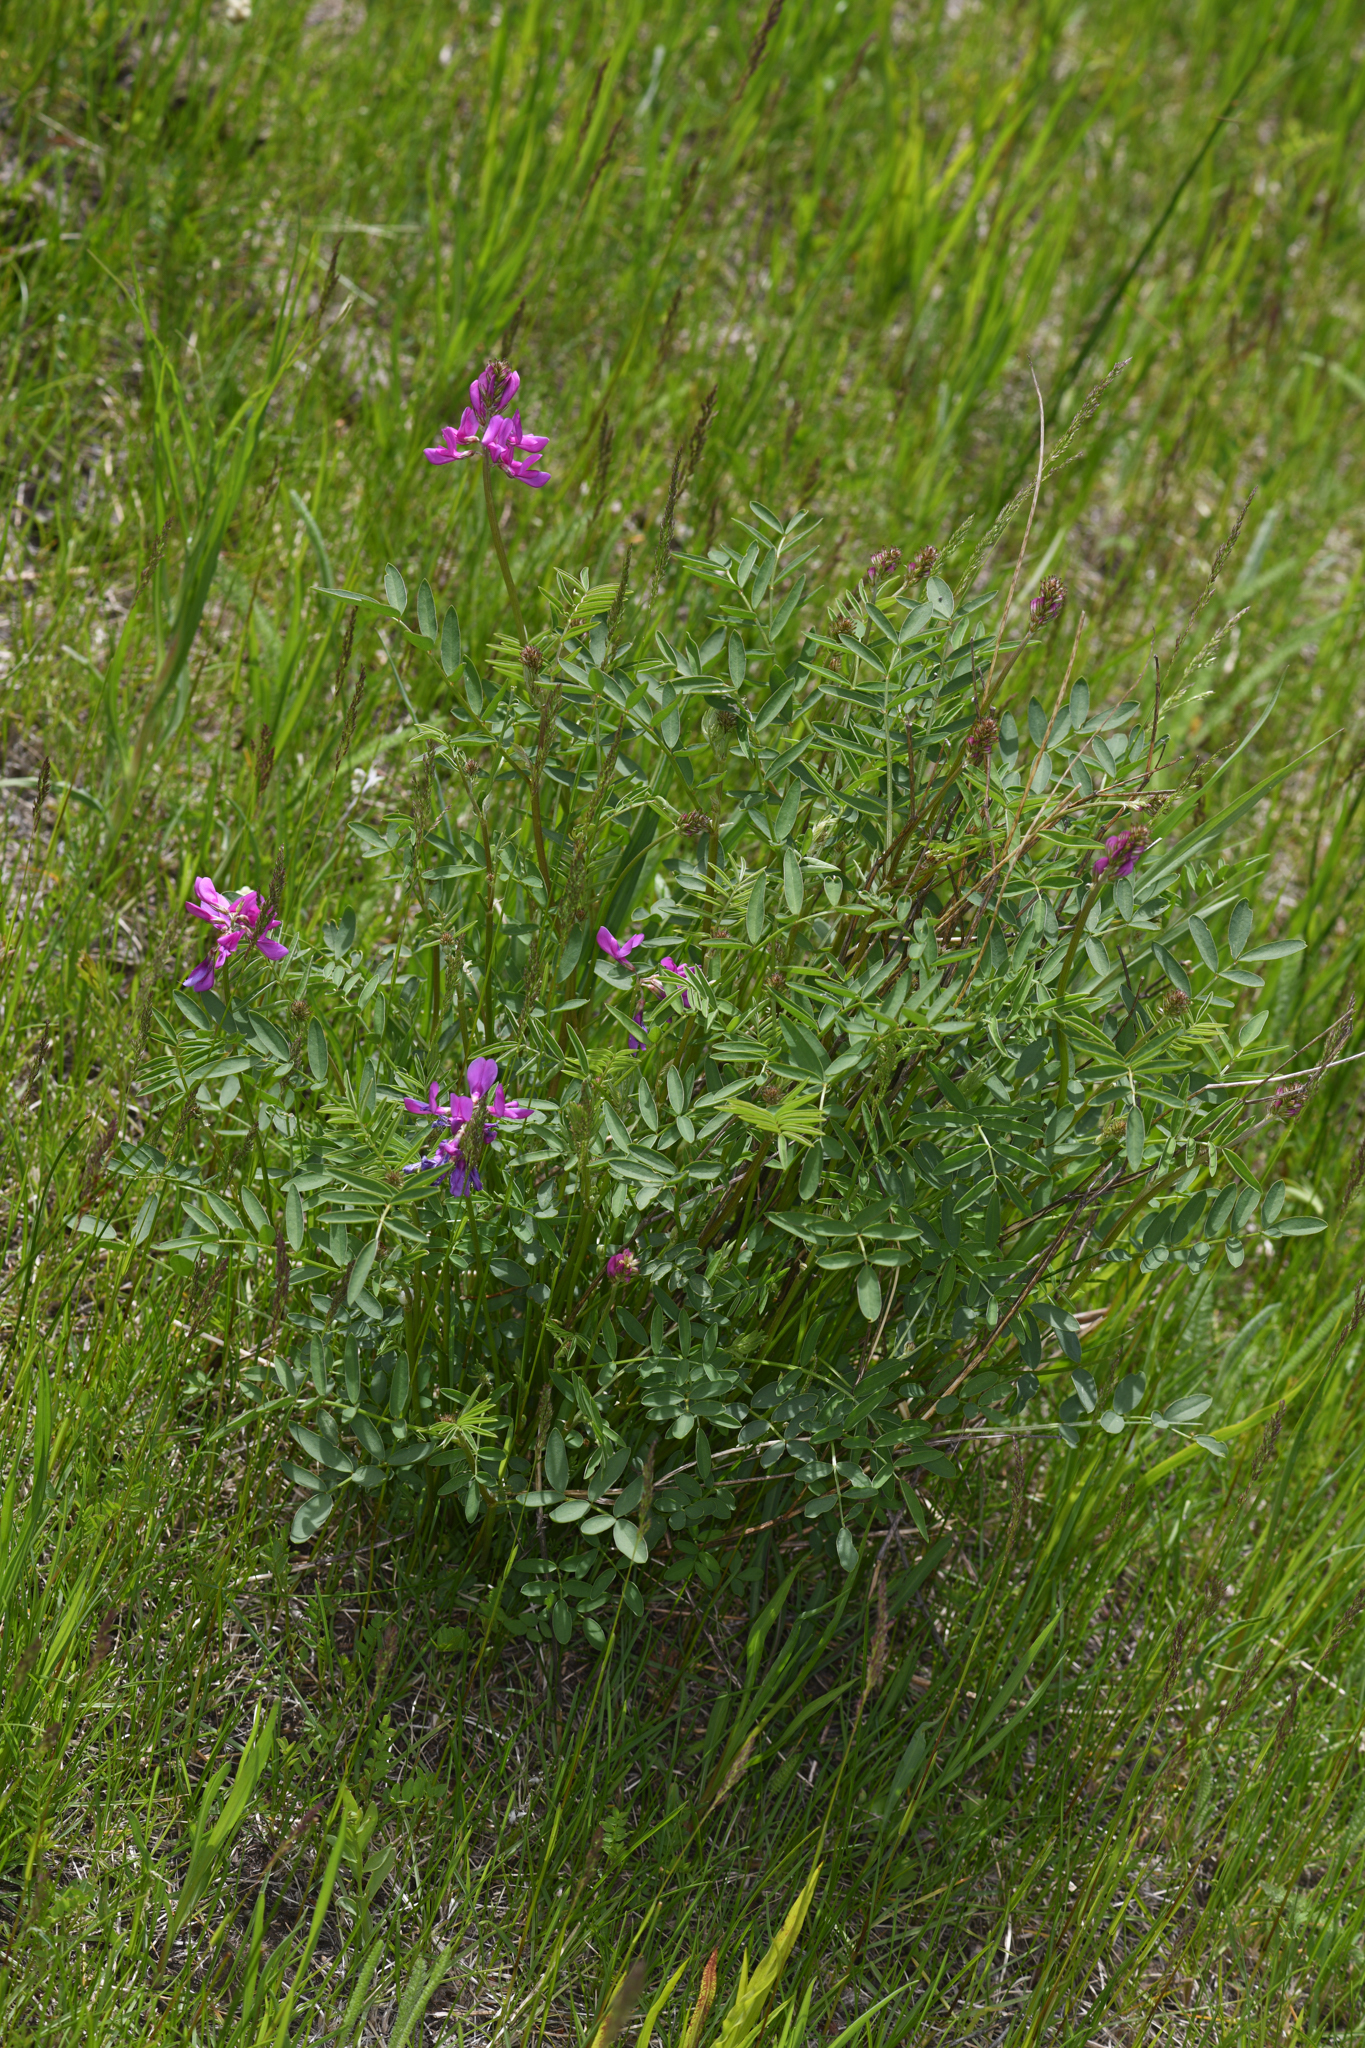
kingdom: Plantae
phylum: Tracheophyta
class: Magnoliopsida
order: Fabales
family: Fabaceae
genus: Hedysarum
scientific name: Hedysarum boreale
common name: Northern sweet-vetch
